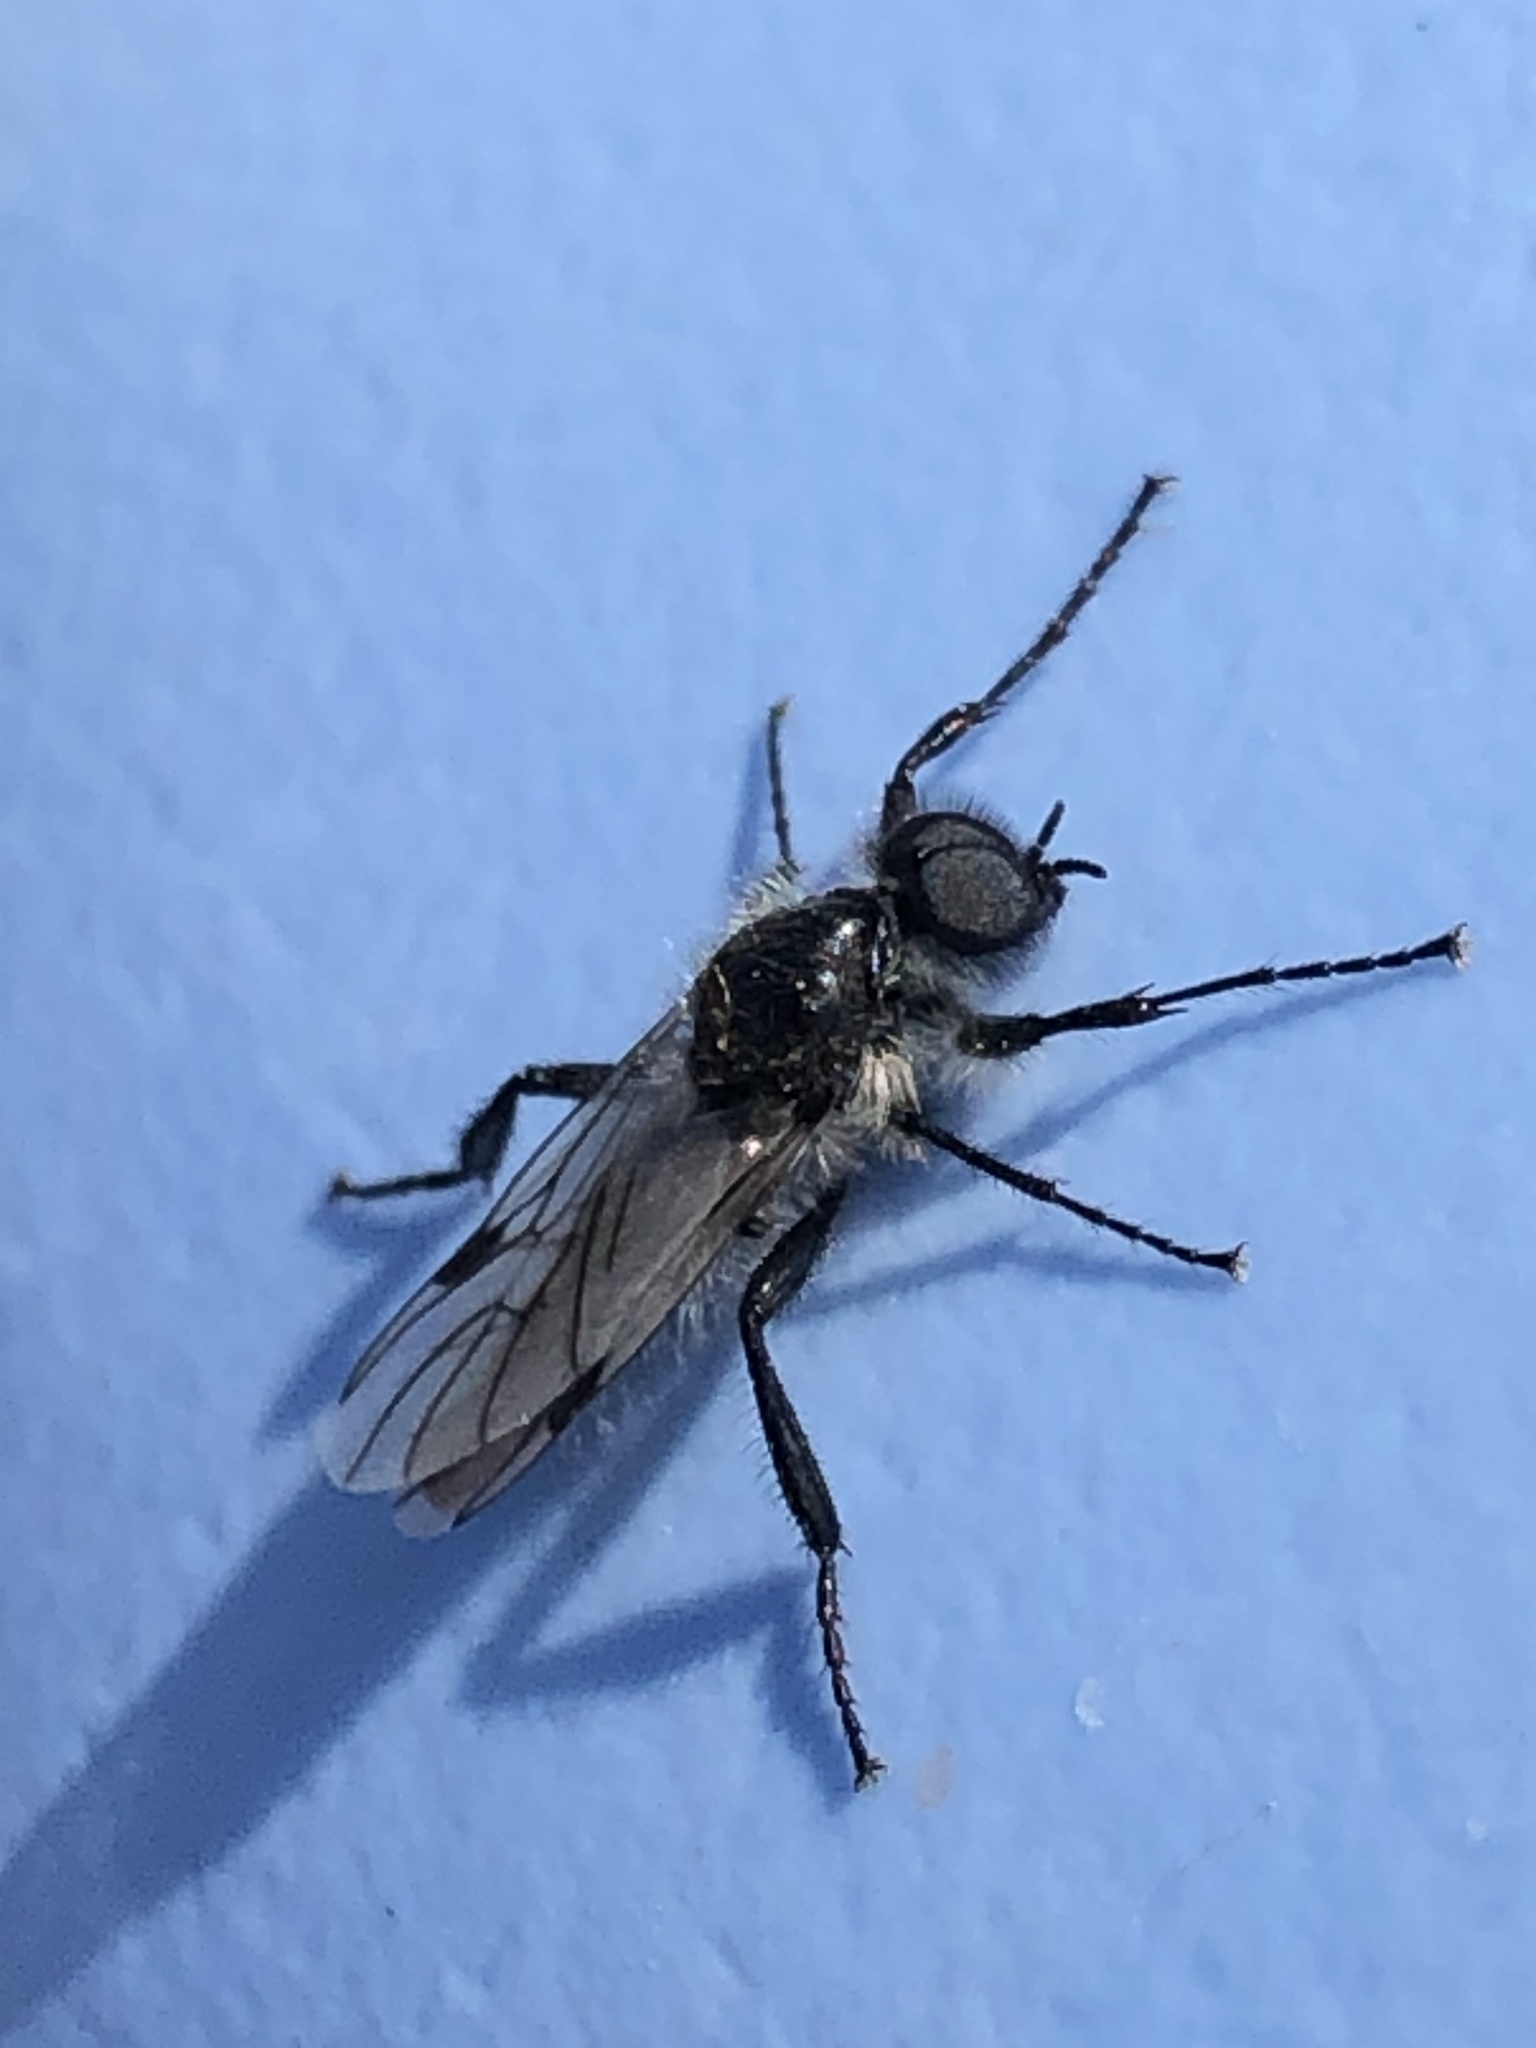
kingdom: Animalia
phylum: Arthropoda
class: Insecta
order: Diptera
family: Bibionidae
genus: Bibio
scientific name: Bibio albipennis
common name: White-winged march fly
